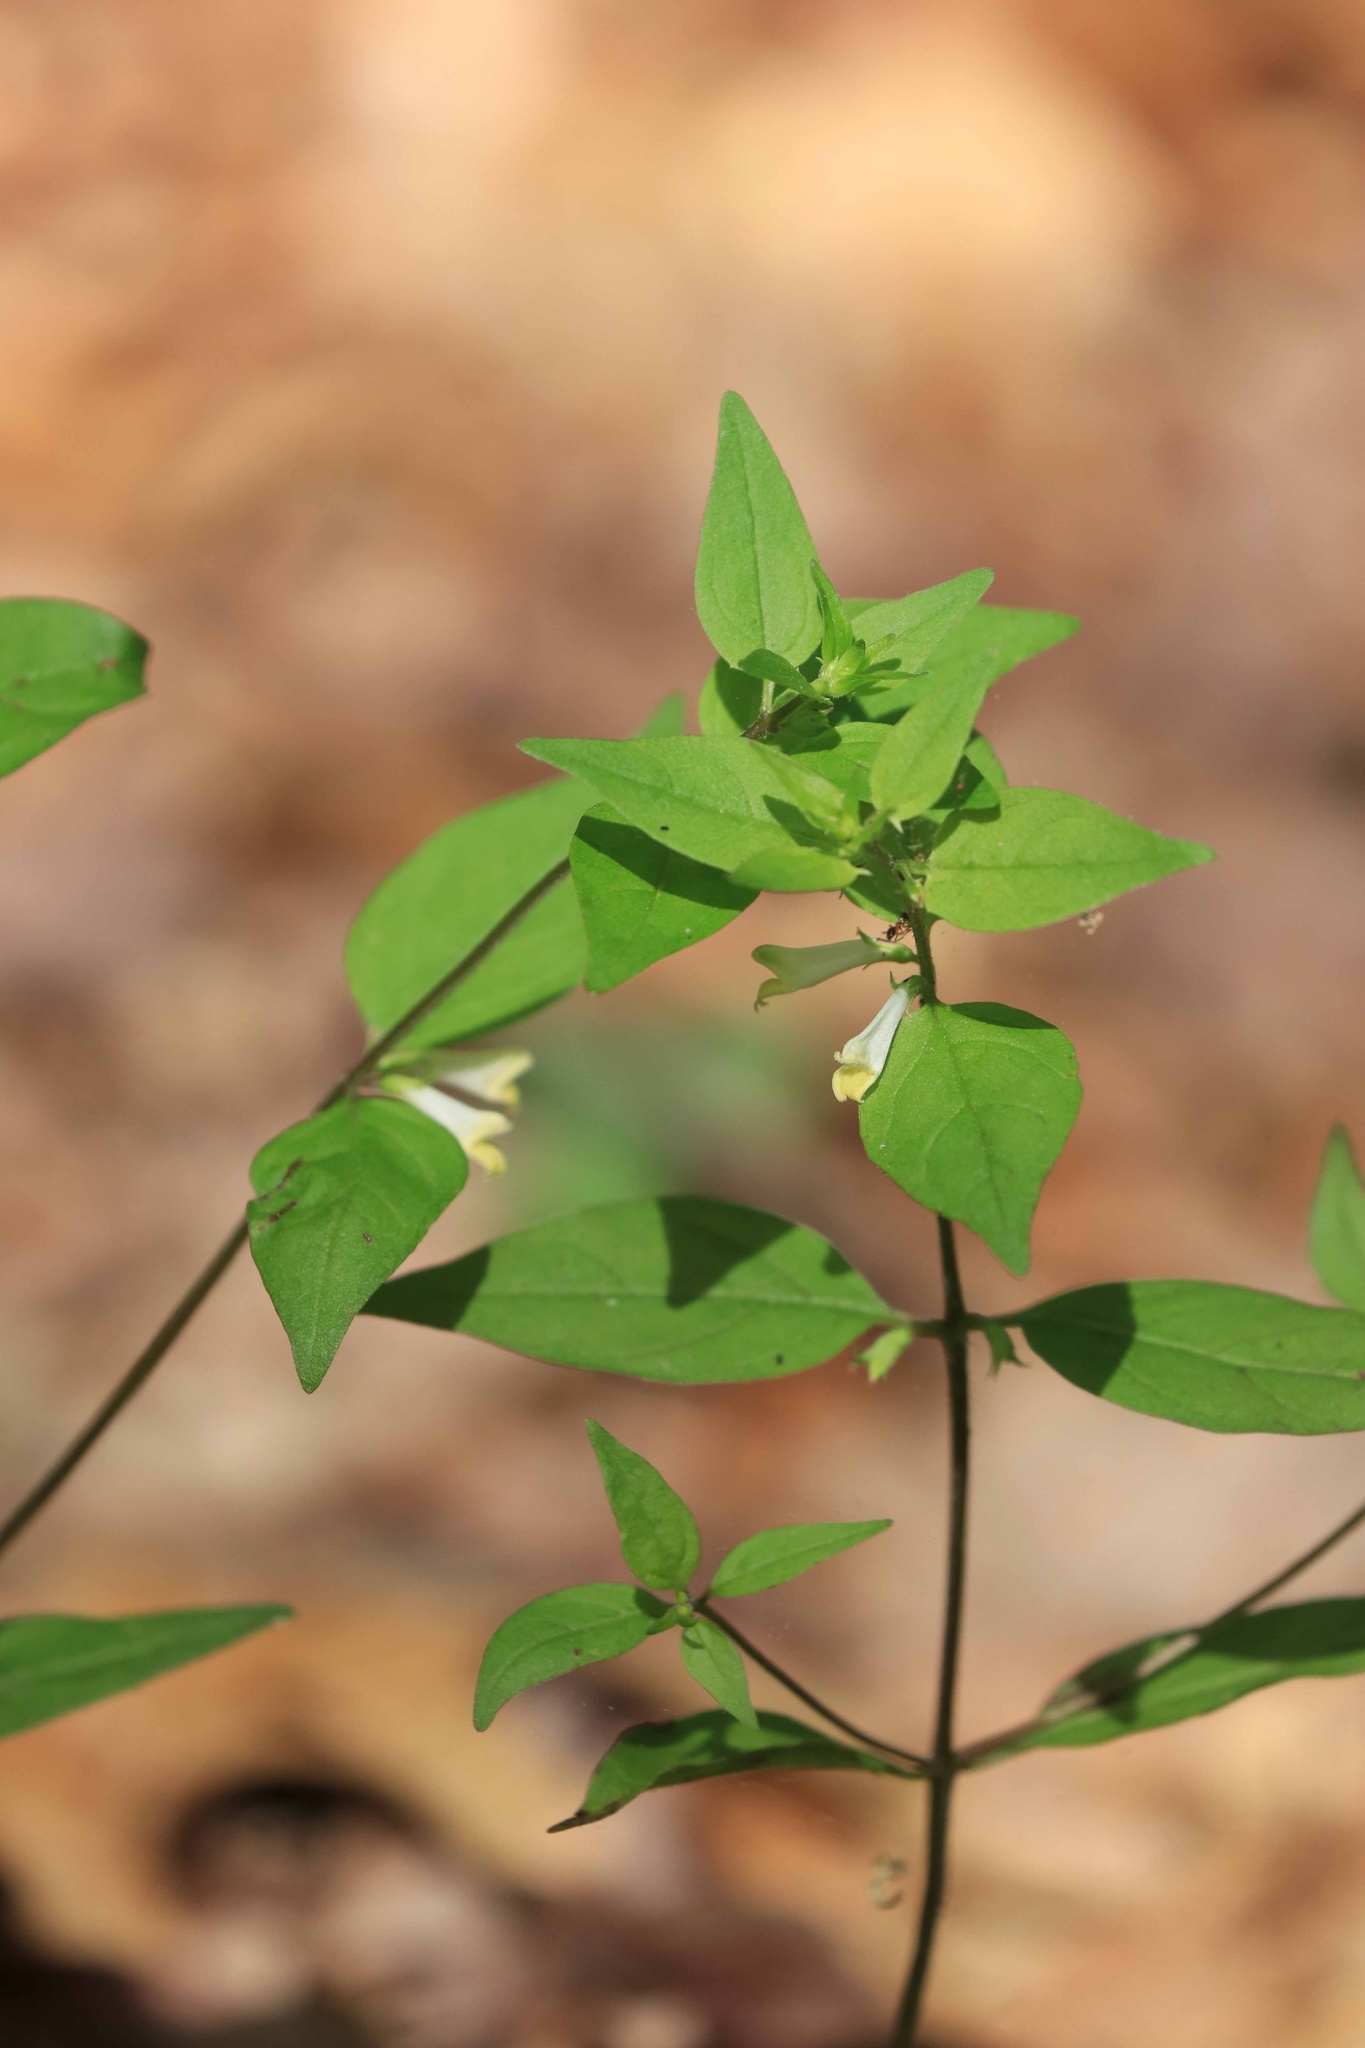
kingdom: Plantae
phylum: Tracheophyta
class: Magnoliopsida
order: Lamiales
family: Orobanchaceae
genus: Melampyrum
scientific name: Melampyrum lineare
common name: American cow-wheat
